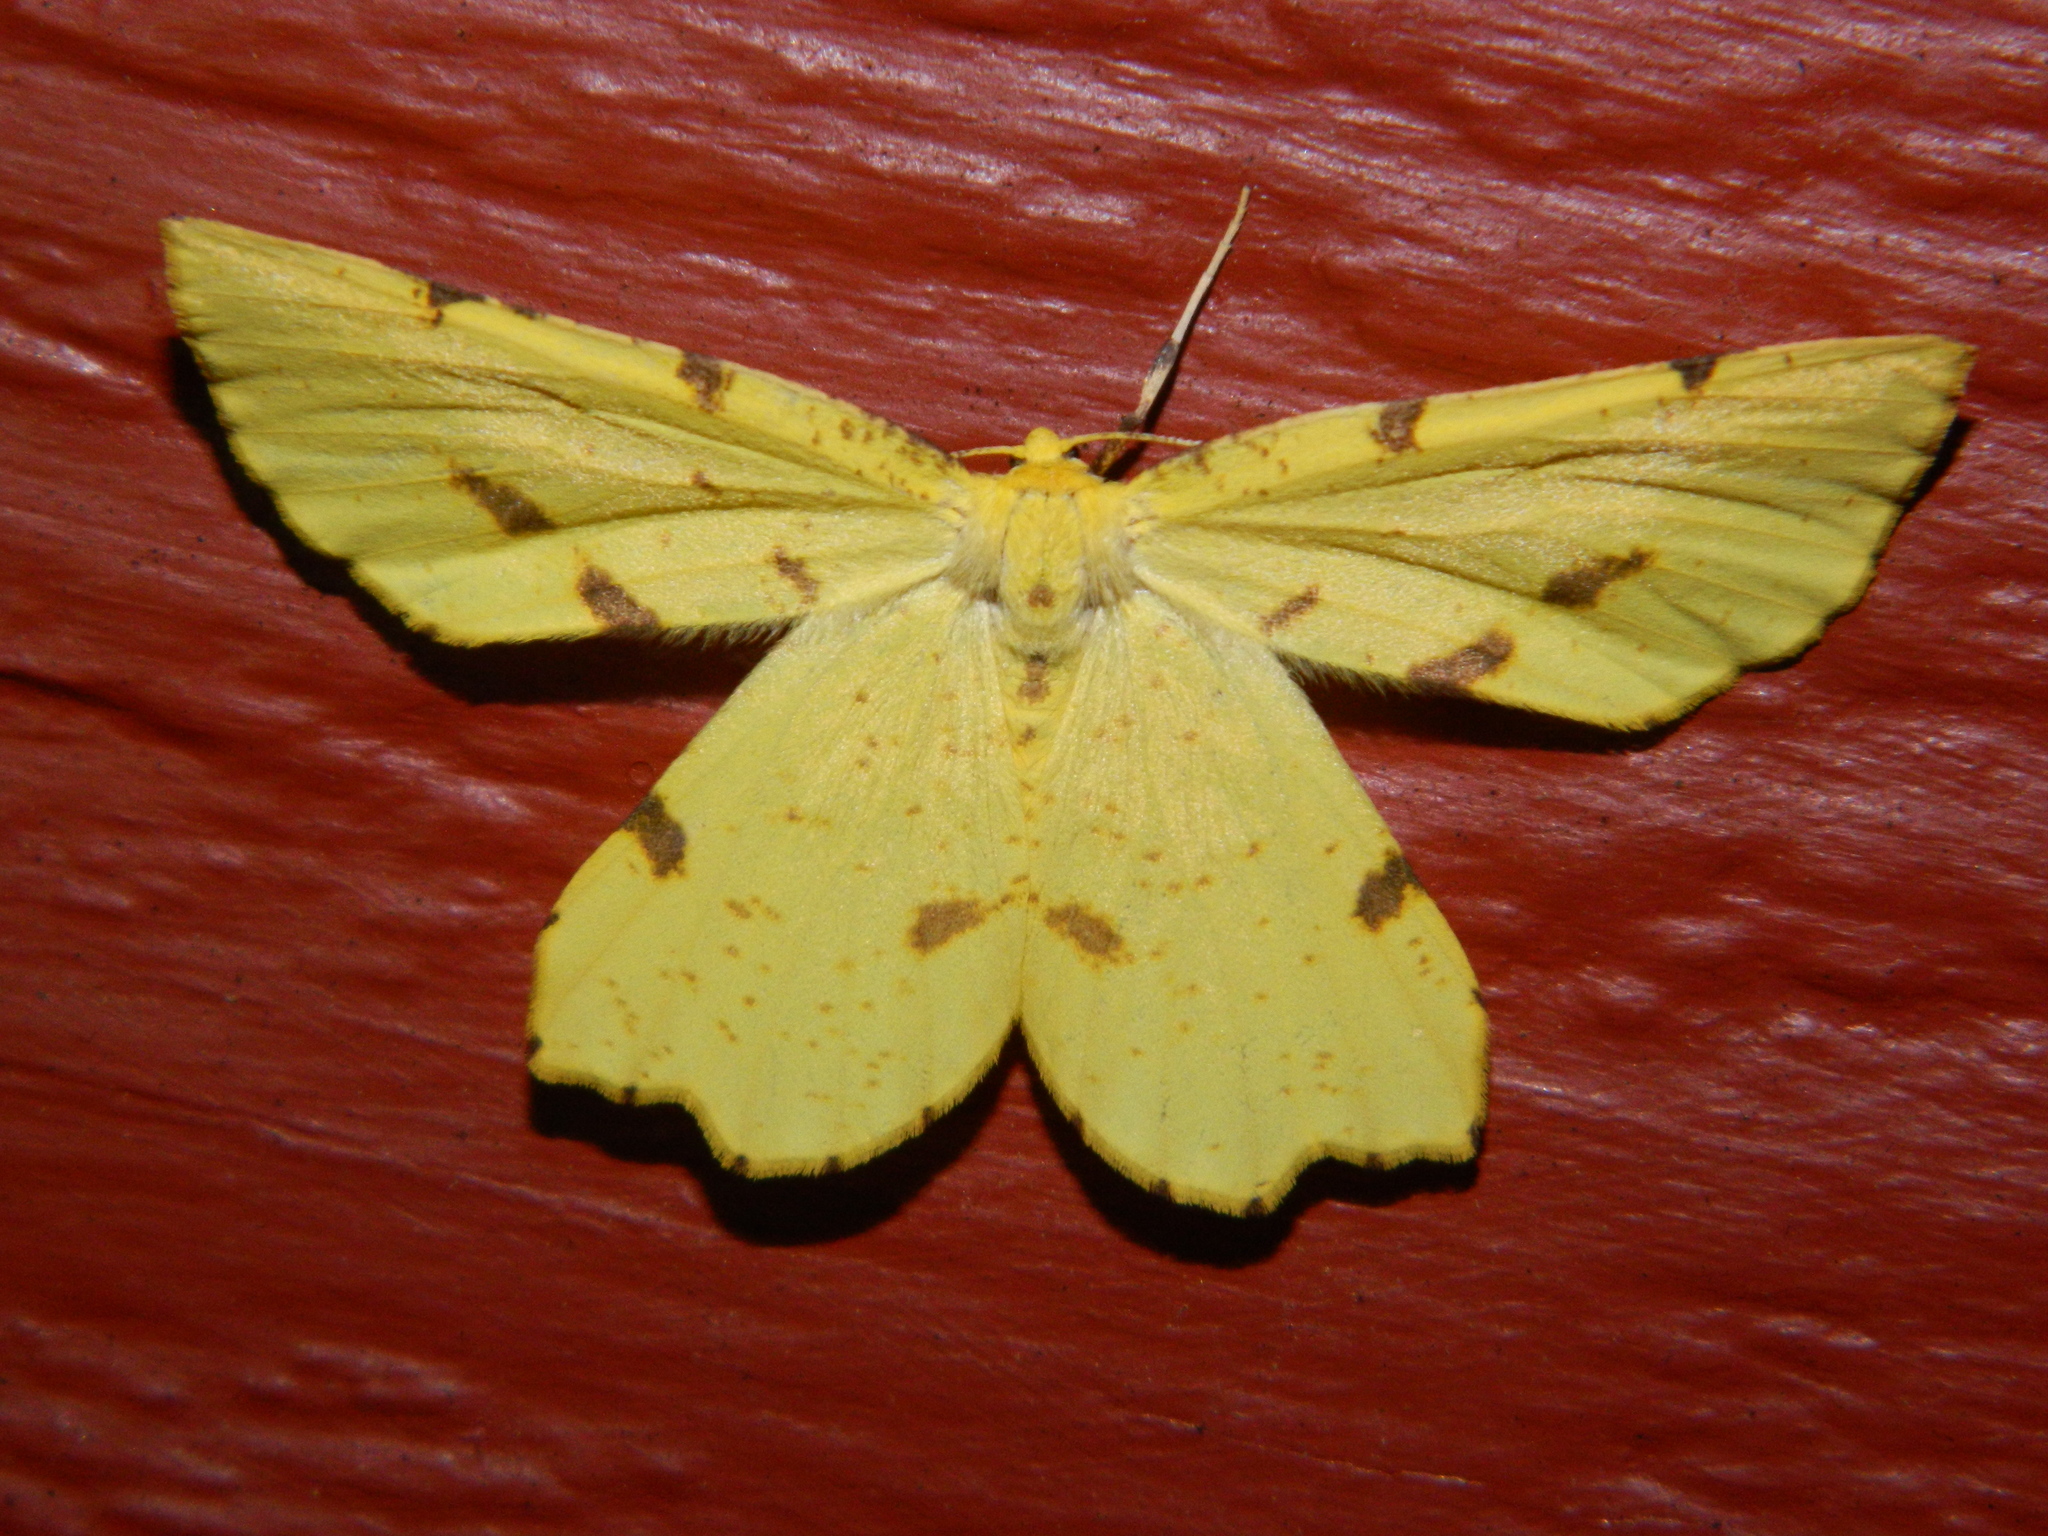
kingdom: Animalia
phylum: Arthropoda
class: Insecta
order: Lepidoptera
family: Geometridae
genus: Xanthotype
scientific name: Xanthotype
